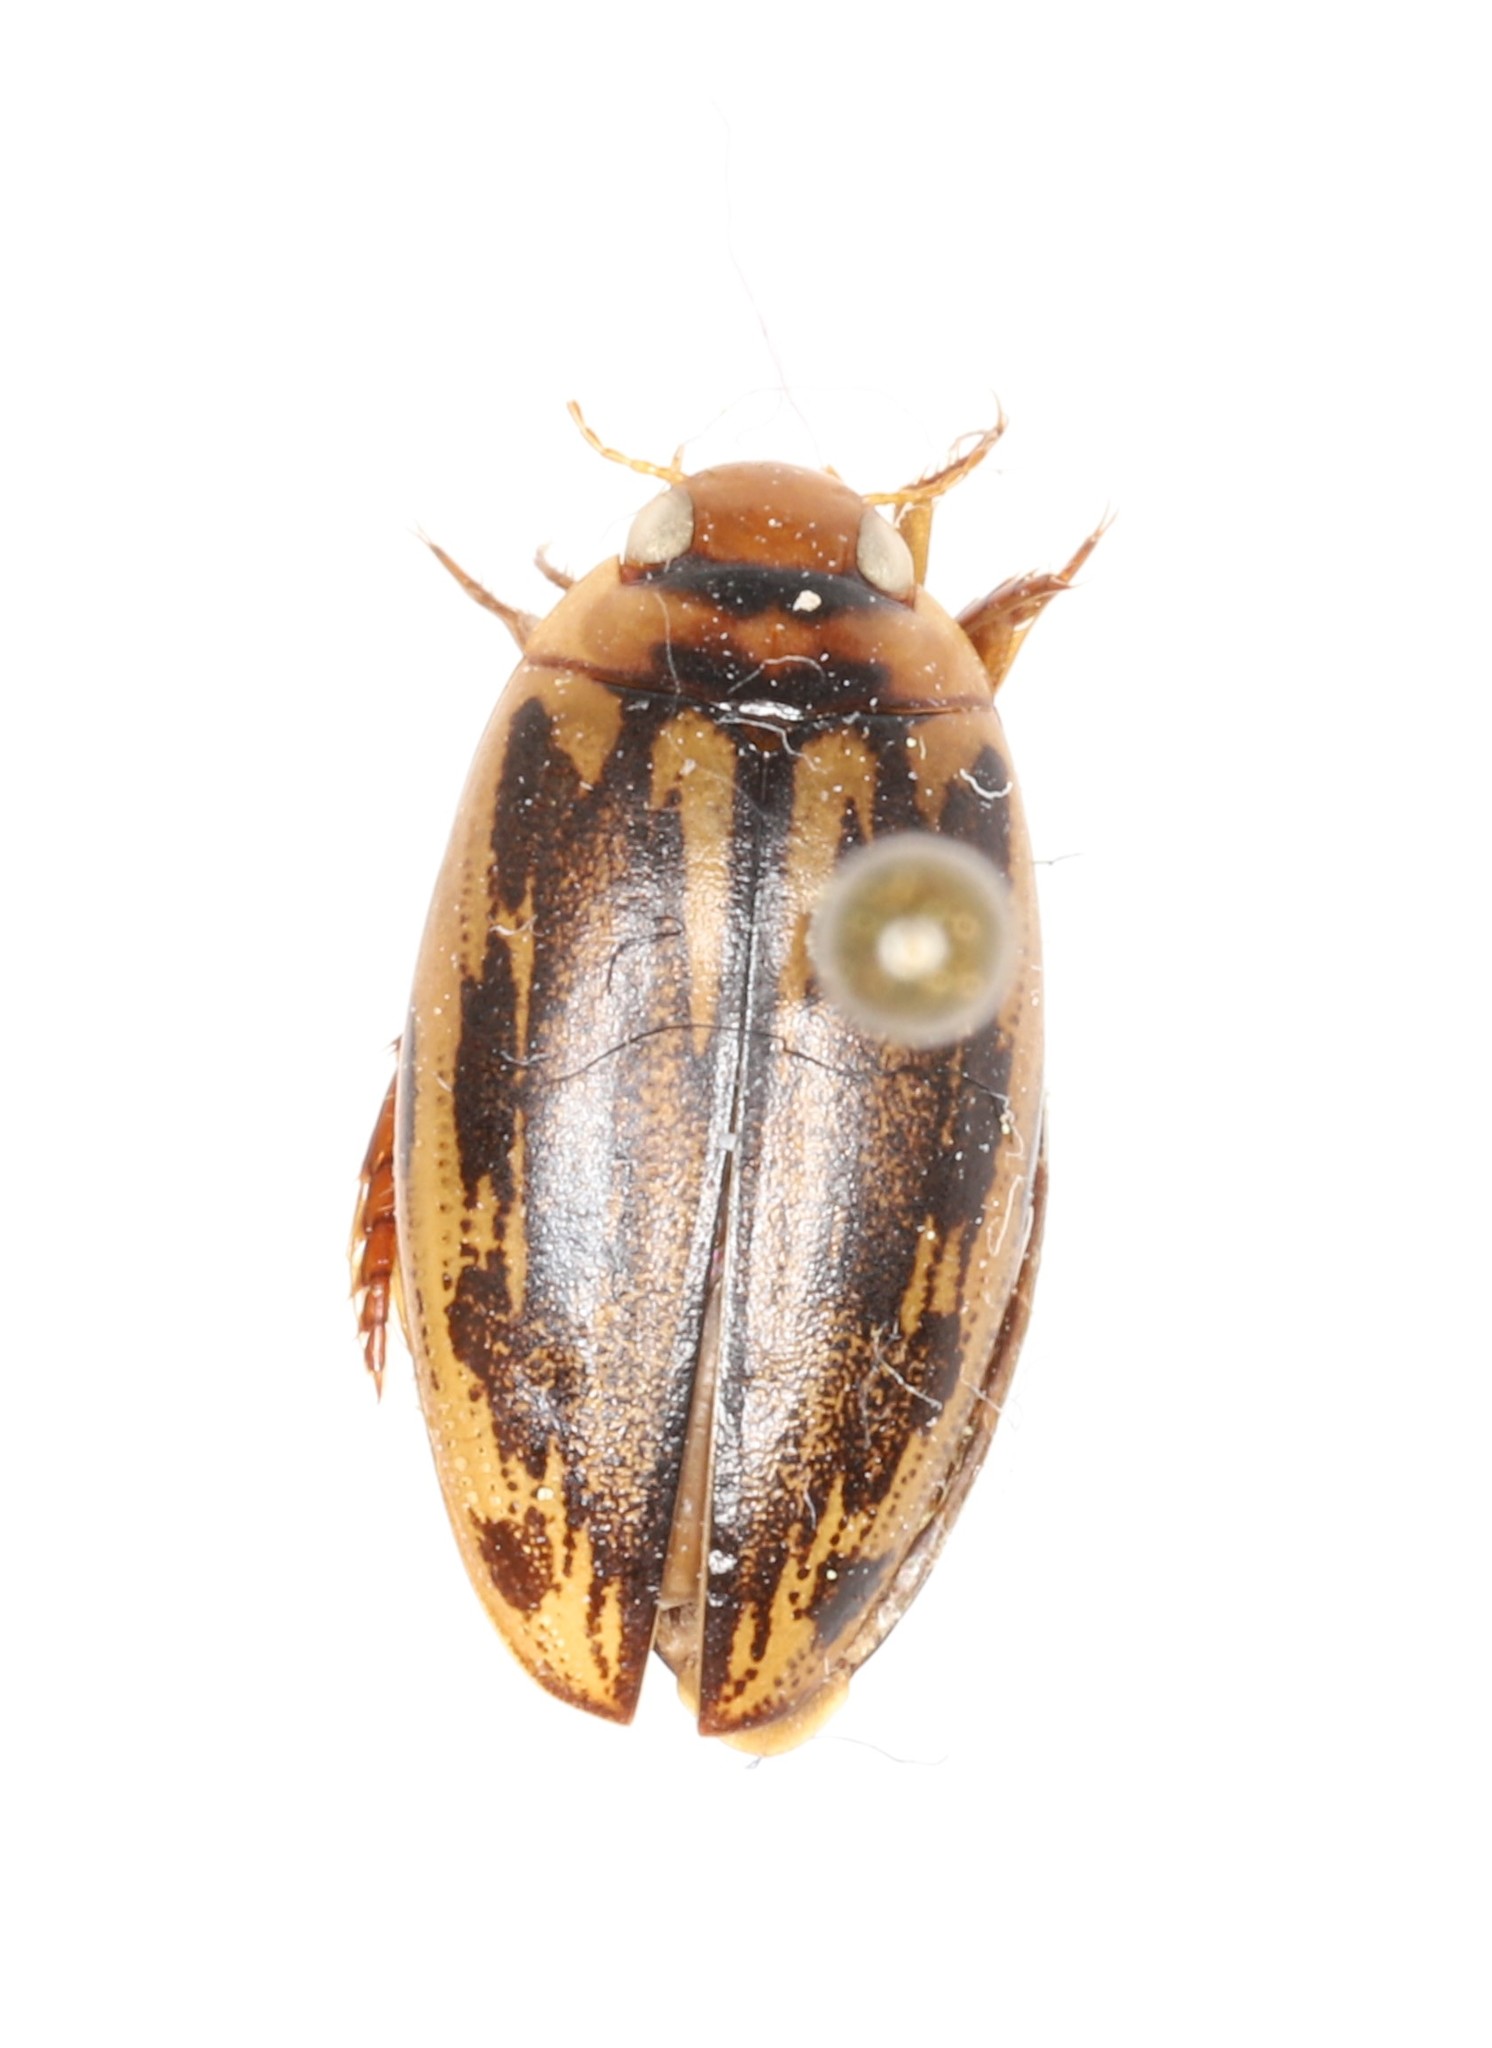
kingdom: Animalia
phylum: Arthropoda
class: Insecta
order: Coleoptera
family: Dytiscidae
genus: Coptotomus
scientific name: Coptotomus longulus
